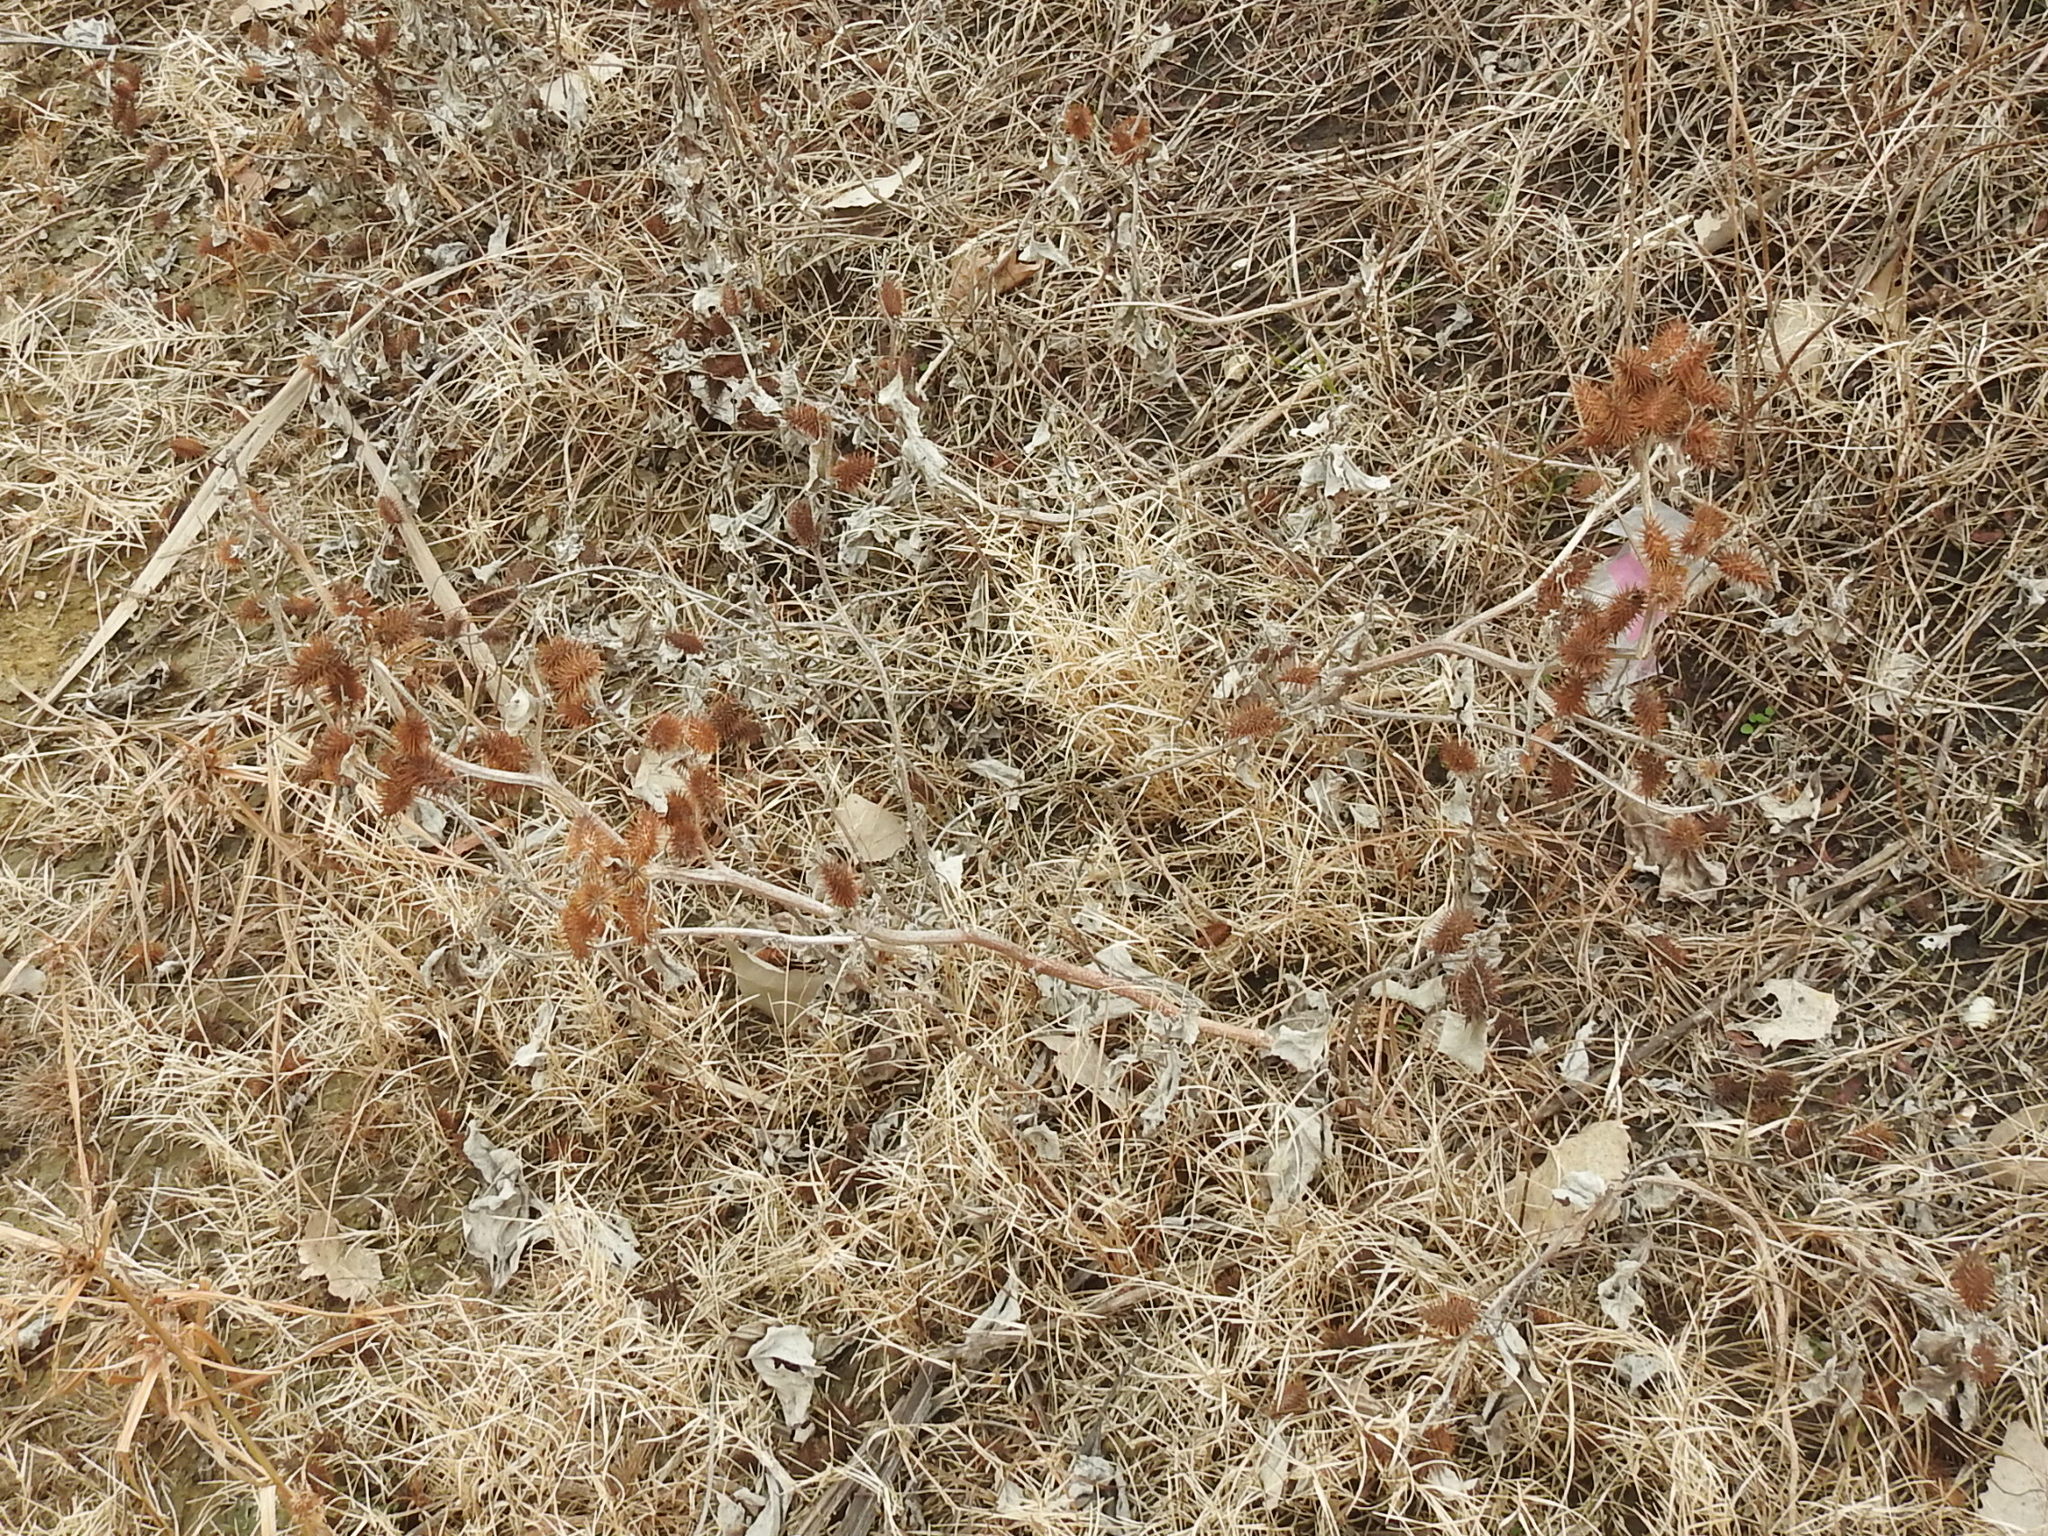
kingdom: Plantae
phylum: Tracheophyta
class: Magnoliopsida
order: Asterales
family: Asteraceae
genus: Xanthium
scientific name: Xanthium strumarium
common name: Rough cocklebur
